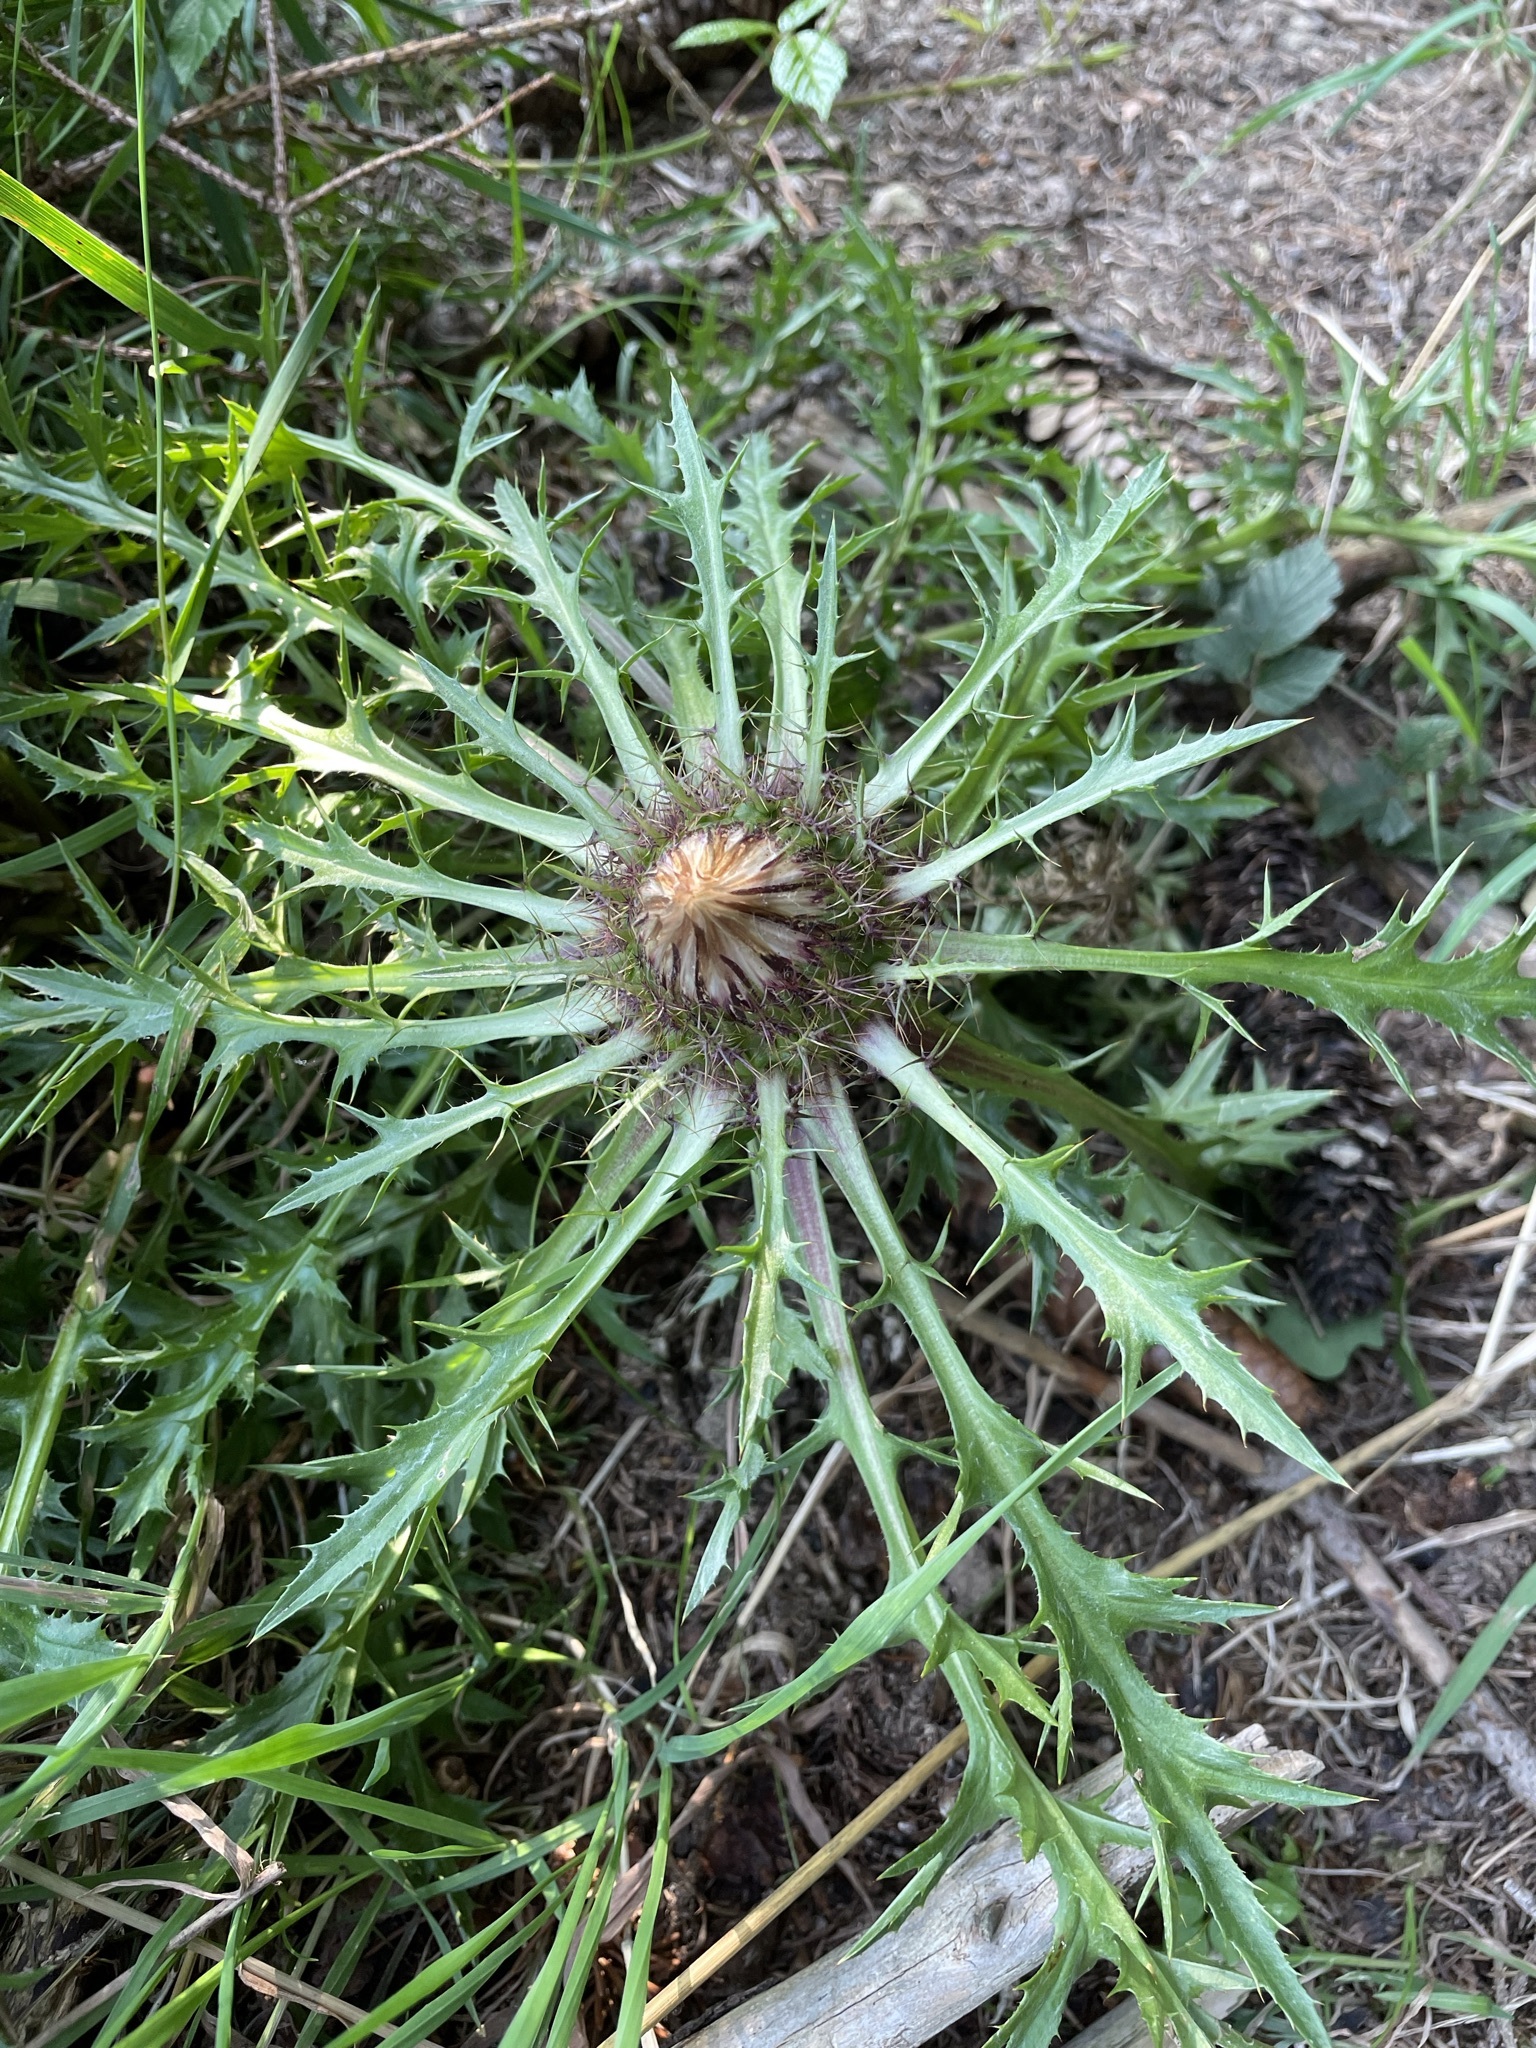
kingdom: Plantae
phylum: Tracheophyta
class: Magnoliopsida
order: Asterales
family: Asteraceae
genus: Carlina
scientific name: Carlina acaulis
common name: Stemless carline thistle
